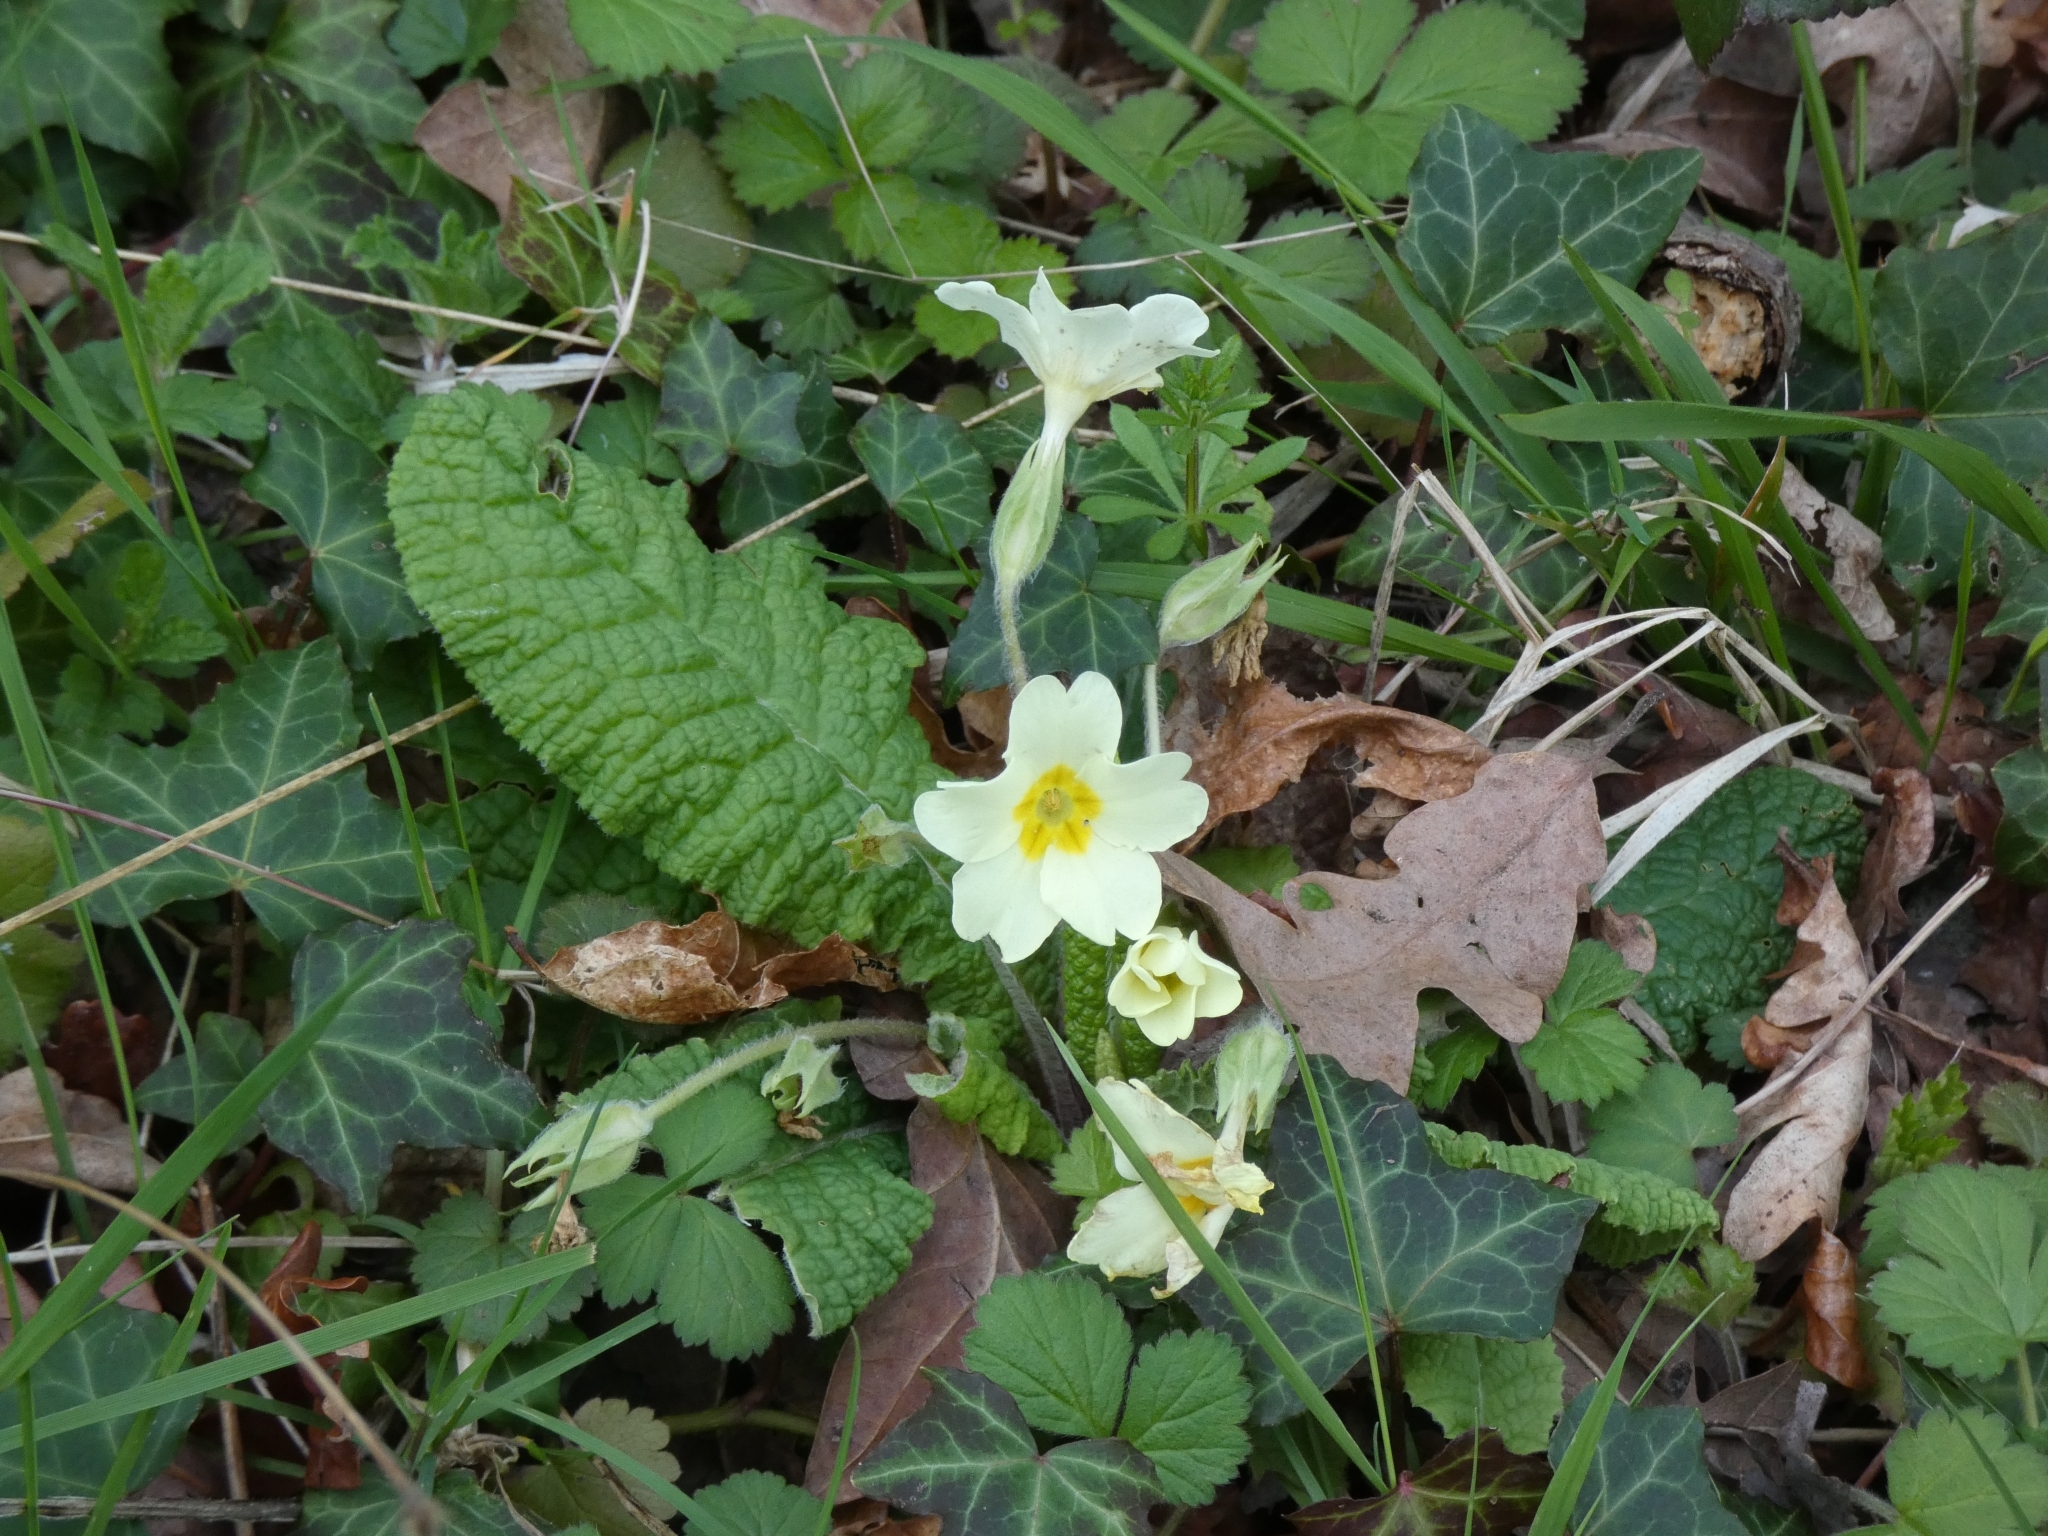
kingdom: Plantae
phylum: Tracheophyta
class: Magnoliopsida
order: Ericales
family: Primulaceae
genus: Primula
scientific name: Primula vulgaris
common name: Primrose
